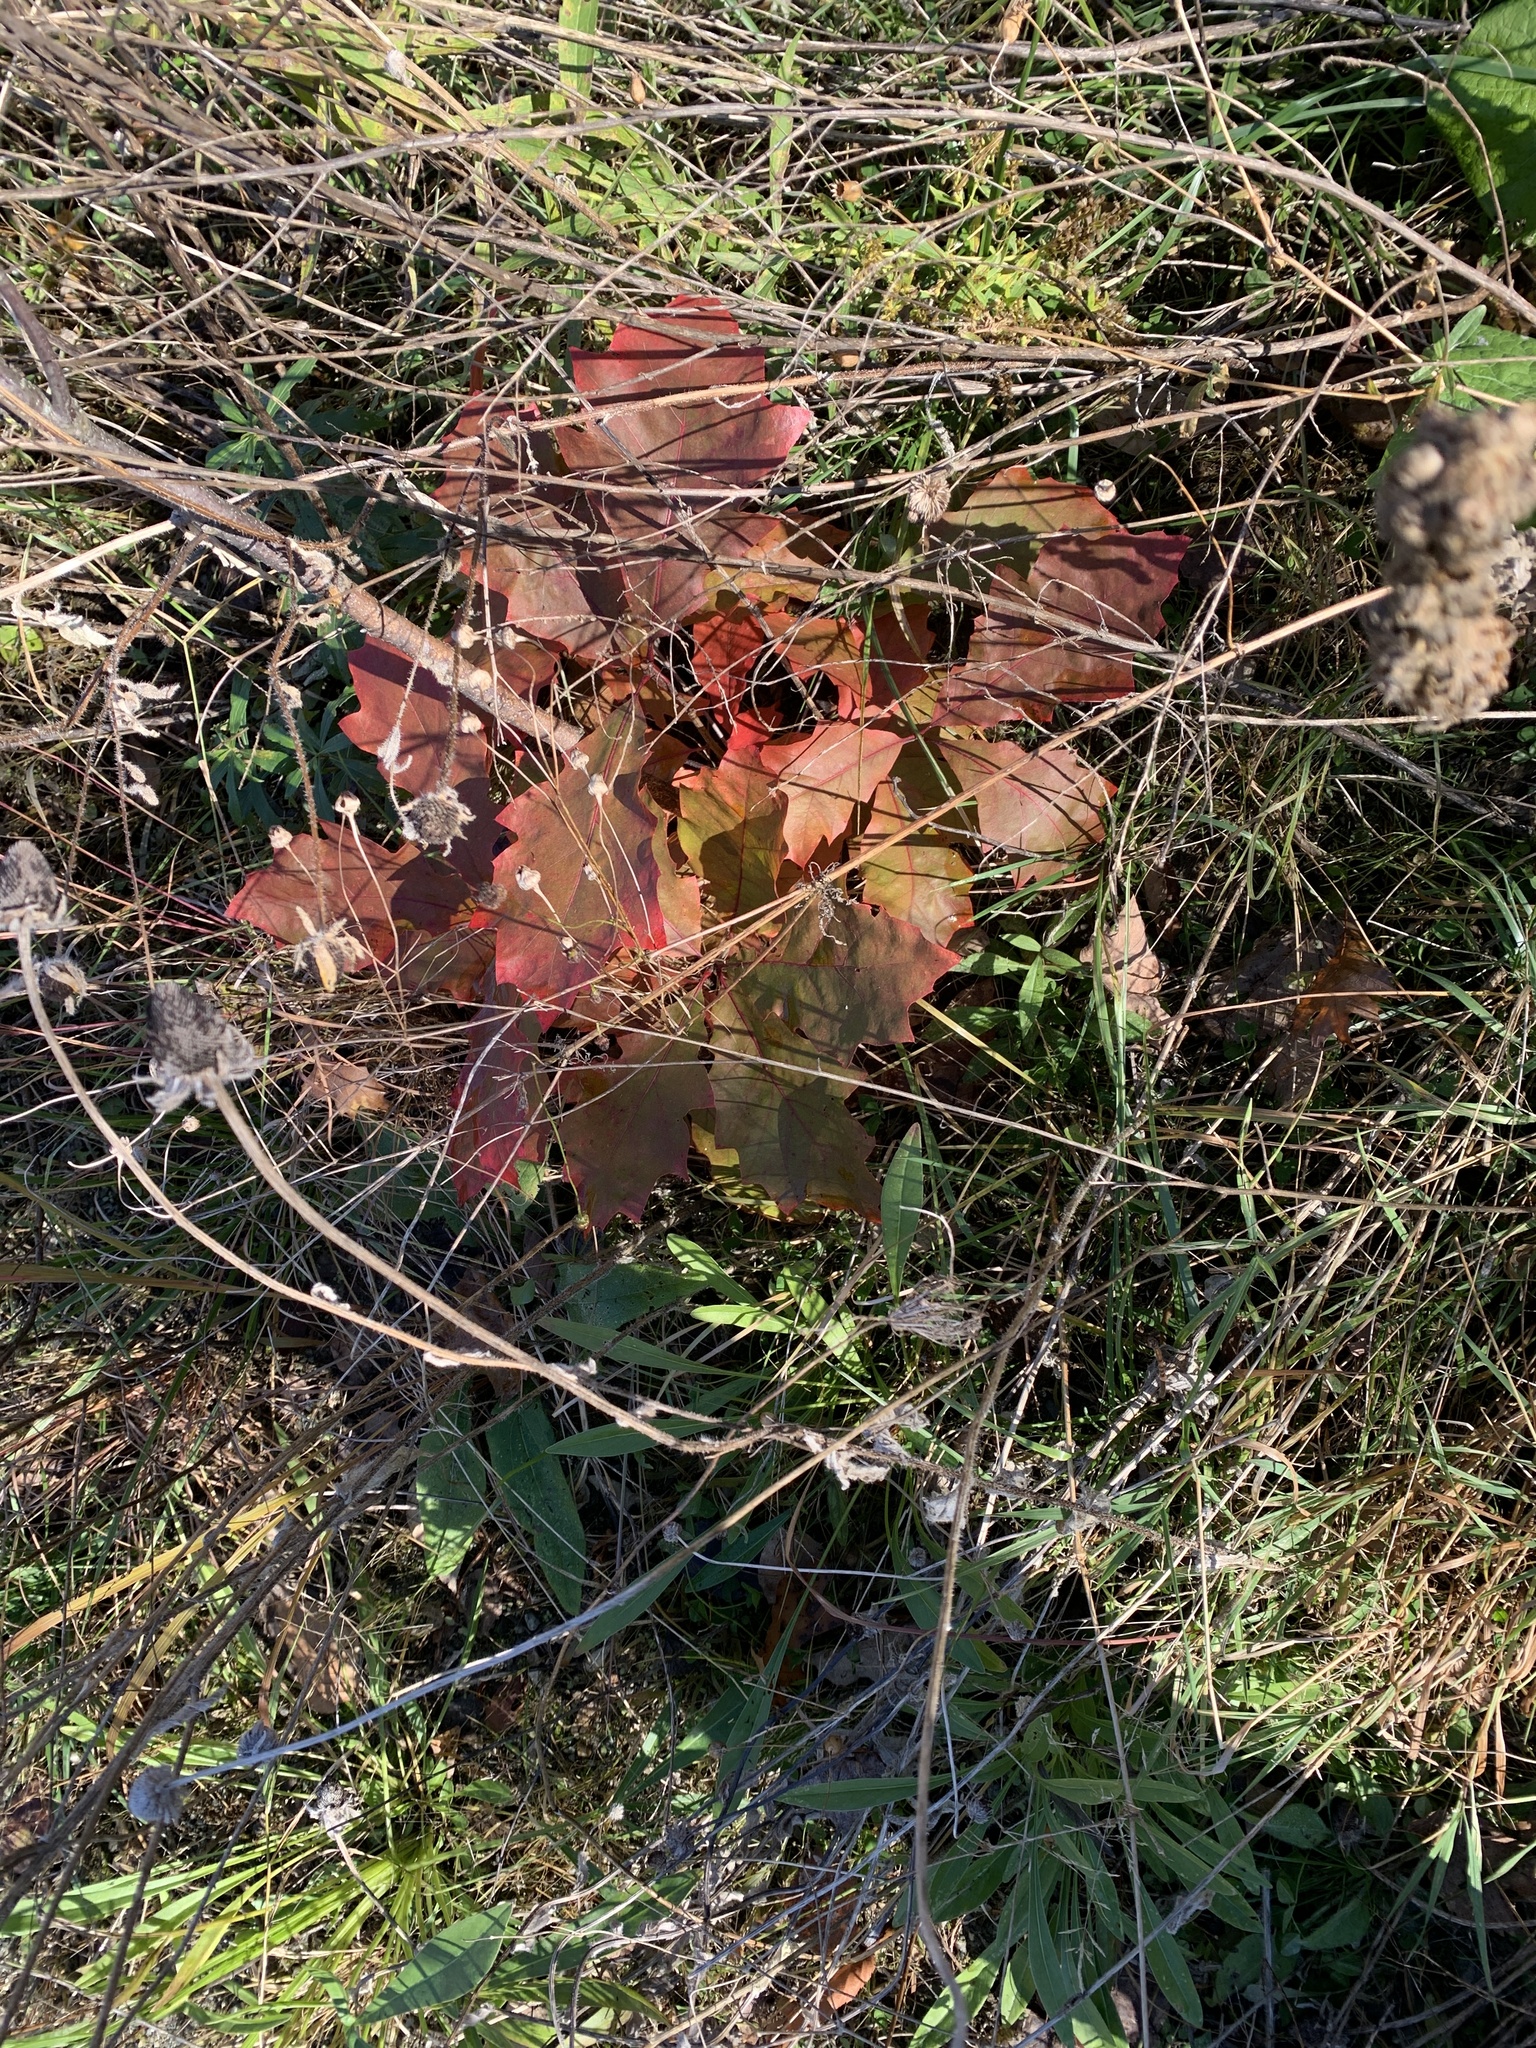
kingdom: Plantae
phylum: Tracheophyta
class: Magnoliopsida
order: Fagales
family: Fagaceae
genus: Quercus
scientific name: Quercus rubra
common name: Red oak
